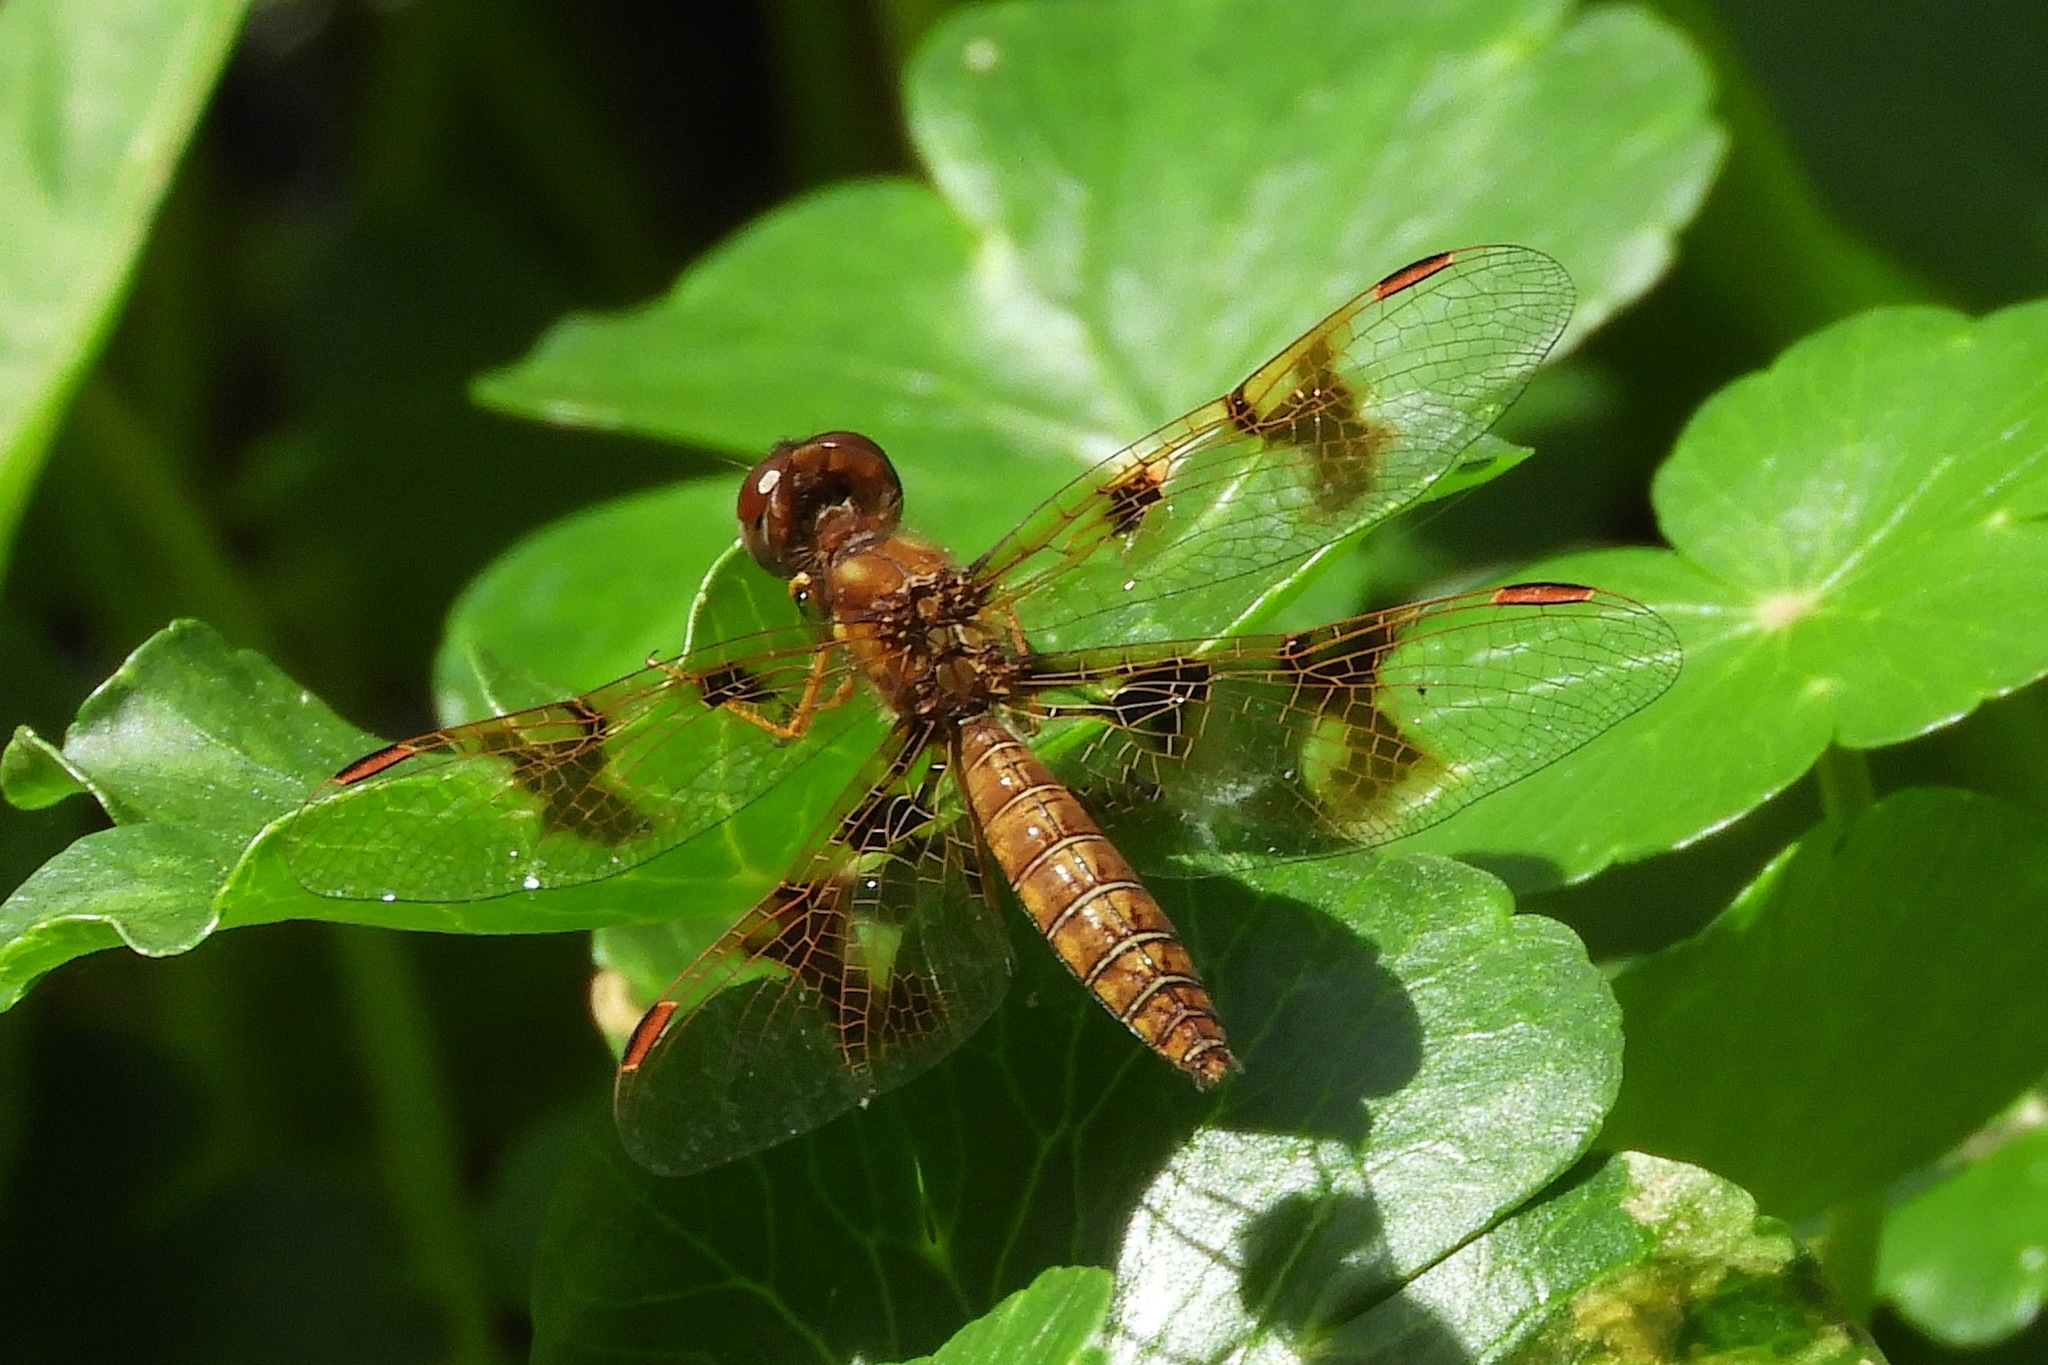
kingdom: Animalia
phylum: Arthropoda
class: Insecta
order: Odonata
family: Libellulidae
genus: Perithemis
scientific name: Perithemis tenera
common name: Eastern amberwing
